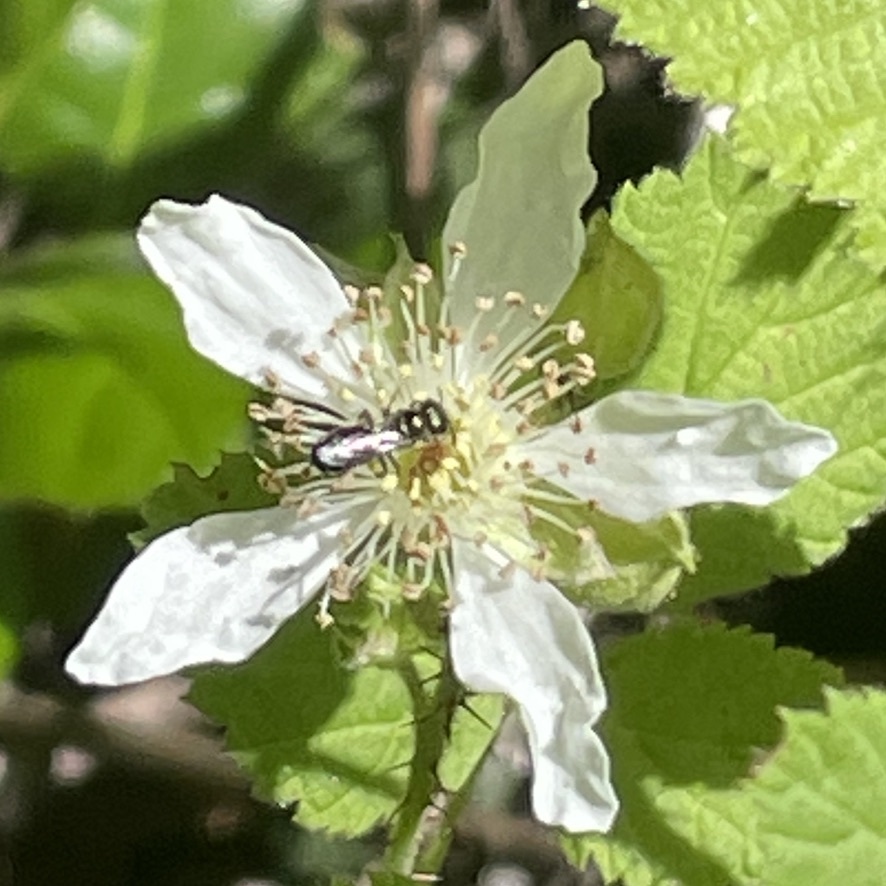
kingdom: Plantae
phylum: Tracheophyta
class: Magnoliopsida
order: Rosales
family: Rosaceae
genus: Rubus
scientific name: Rubus ursinus
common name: Pacific blackberry
